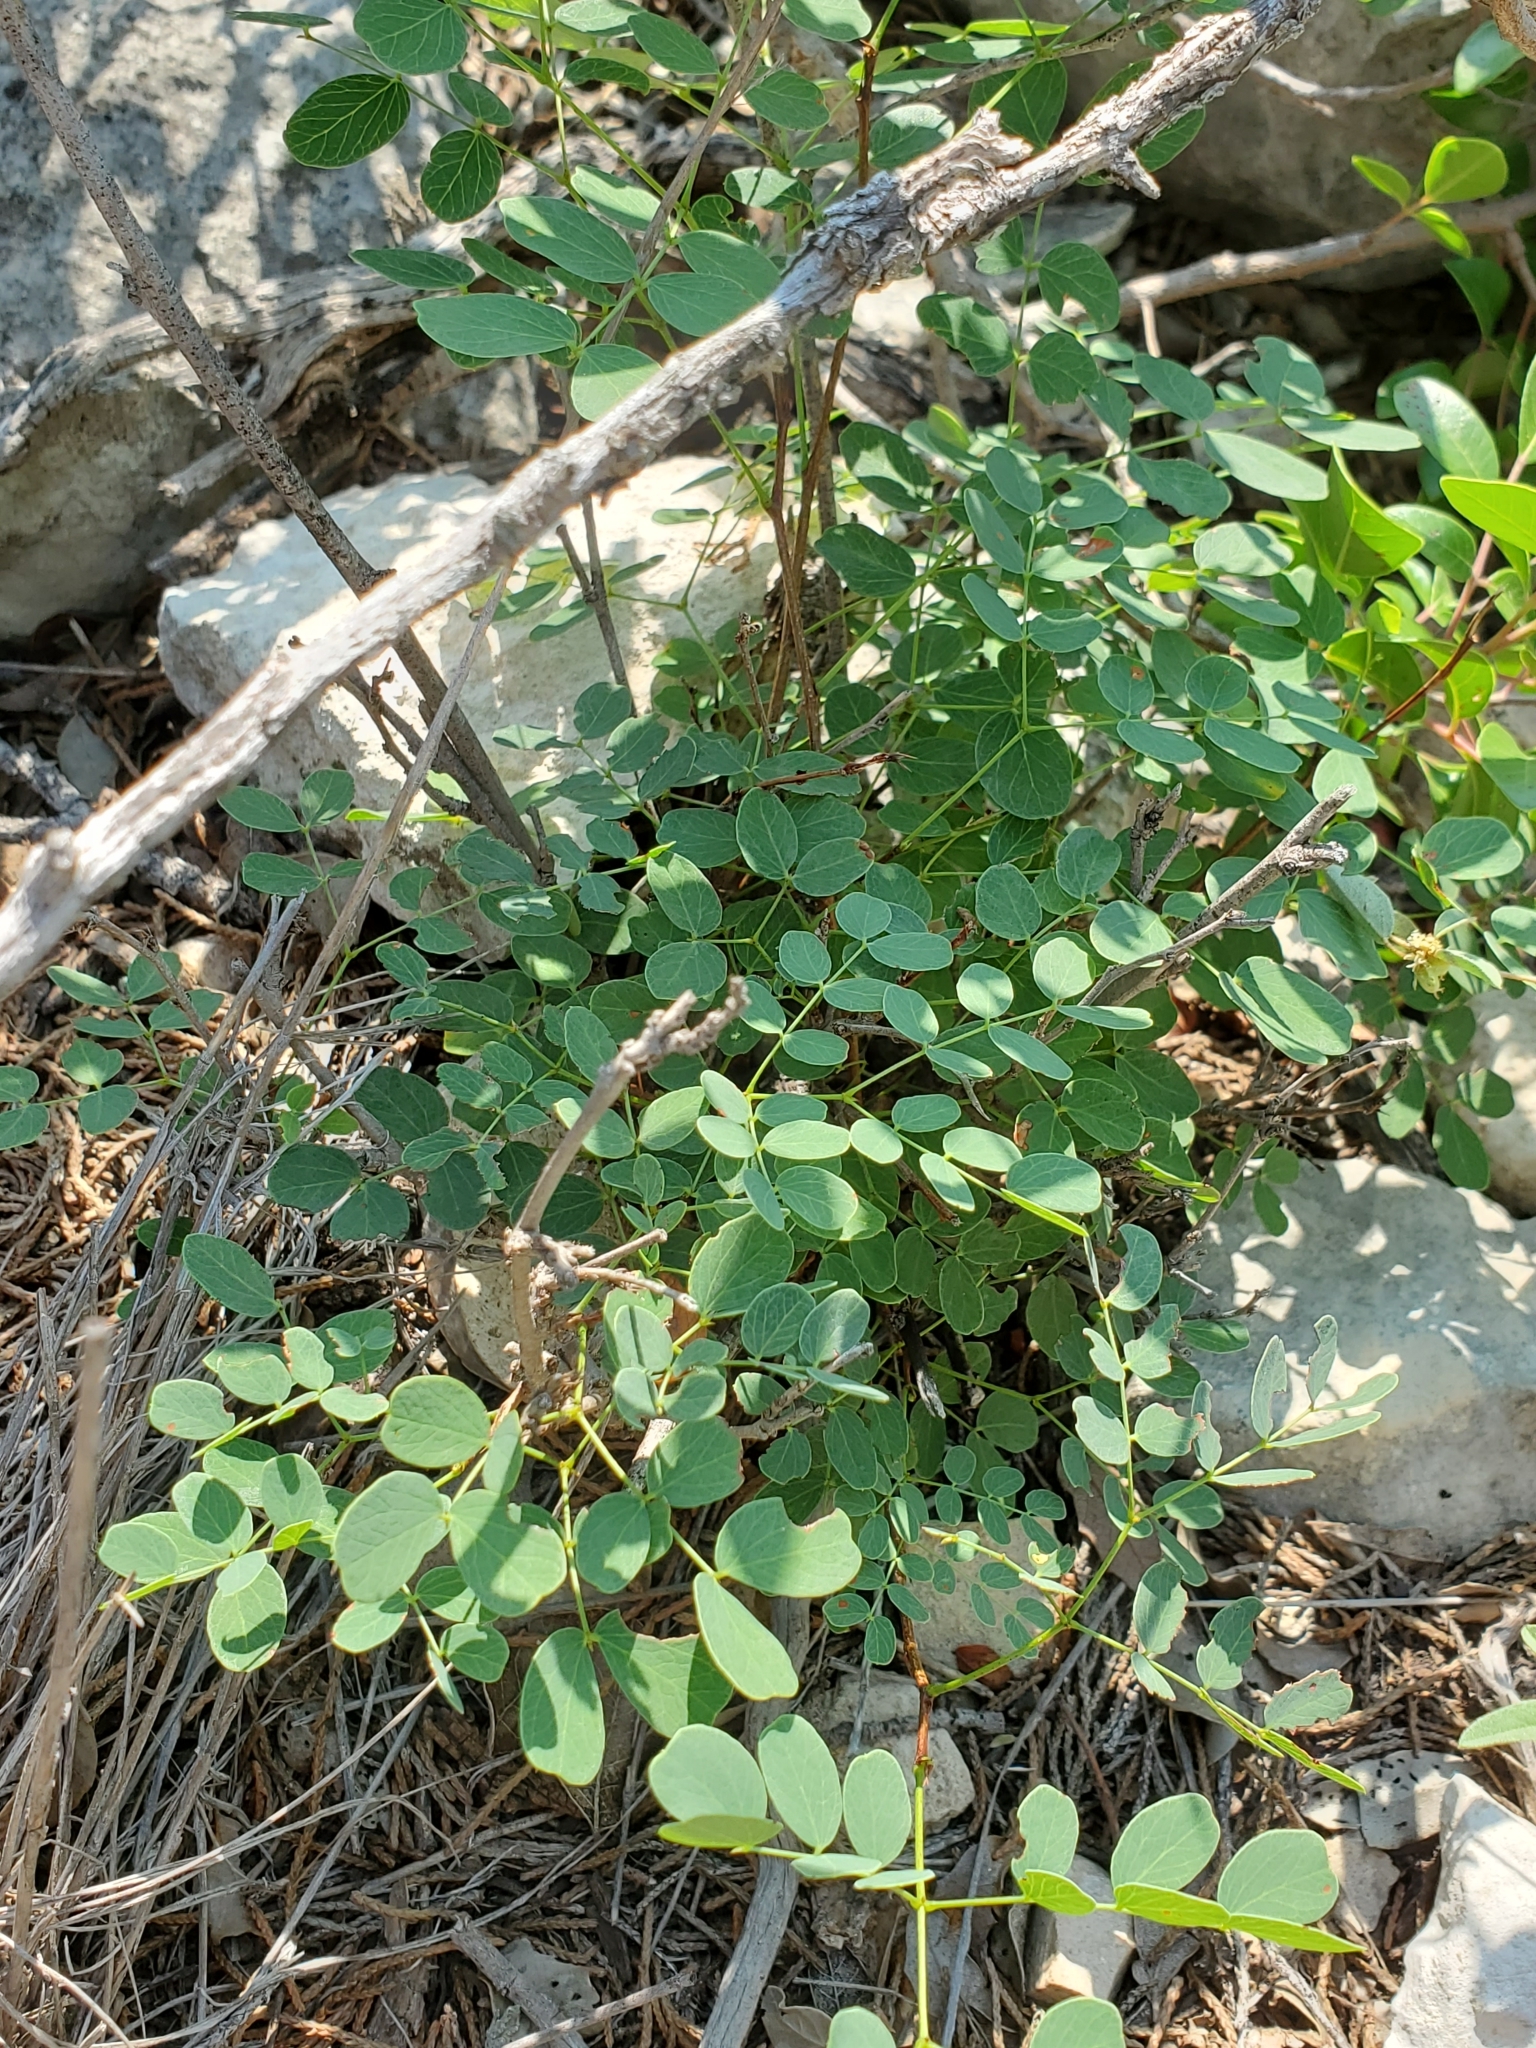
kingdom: Plantae
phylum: Tracheophyta
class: Magnoliopsida
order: Fabales
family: Fabaceae
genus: Leucaena
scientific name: Leucaena retusa
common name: Littleleaf leadtree
